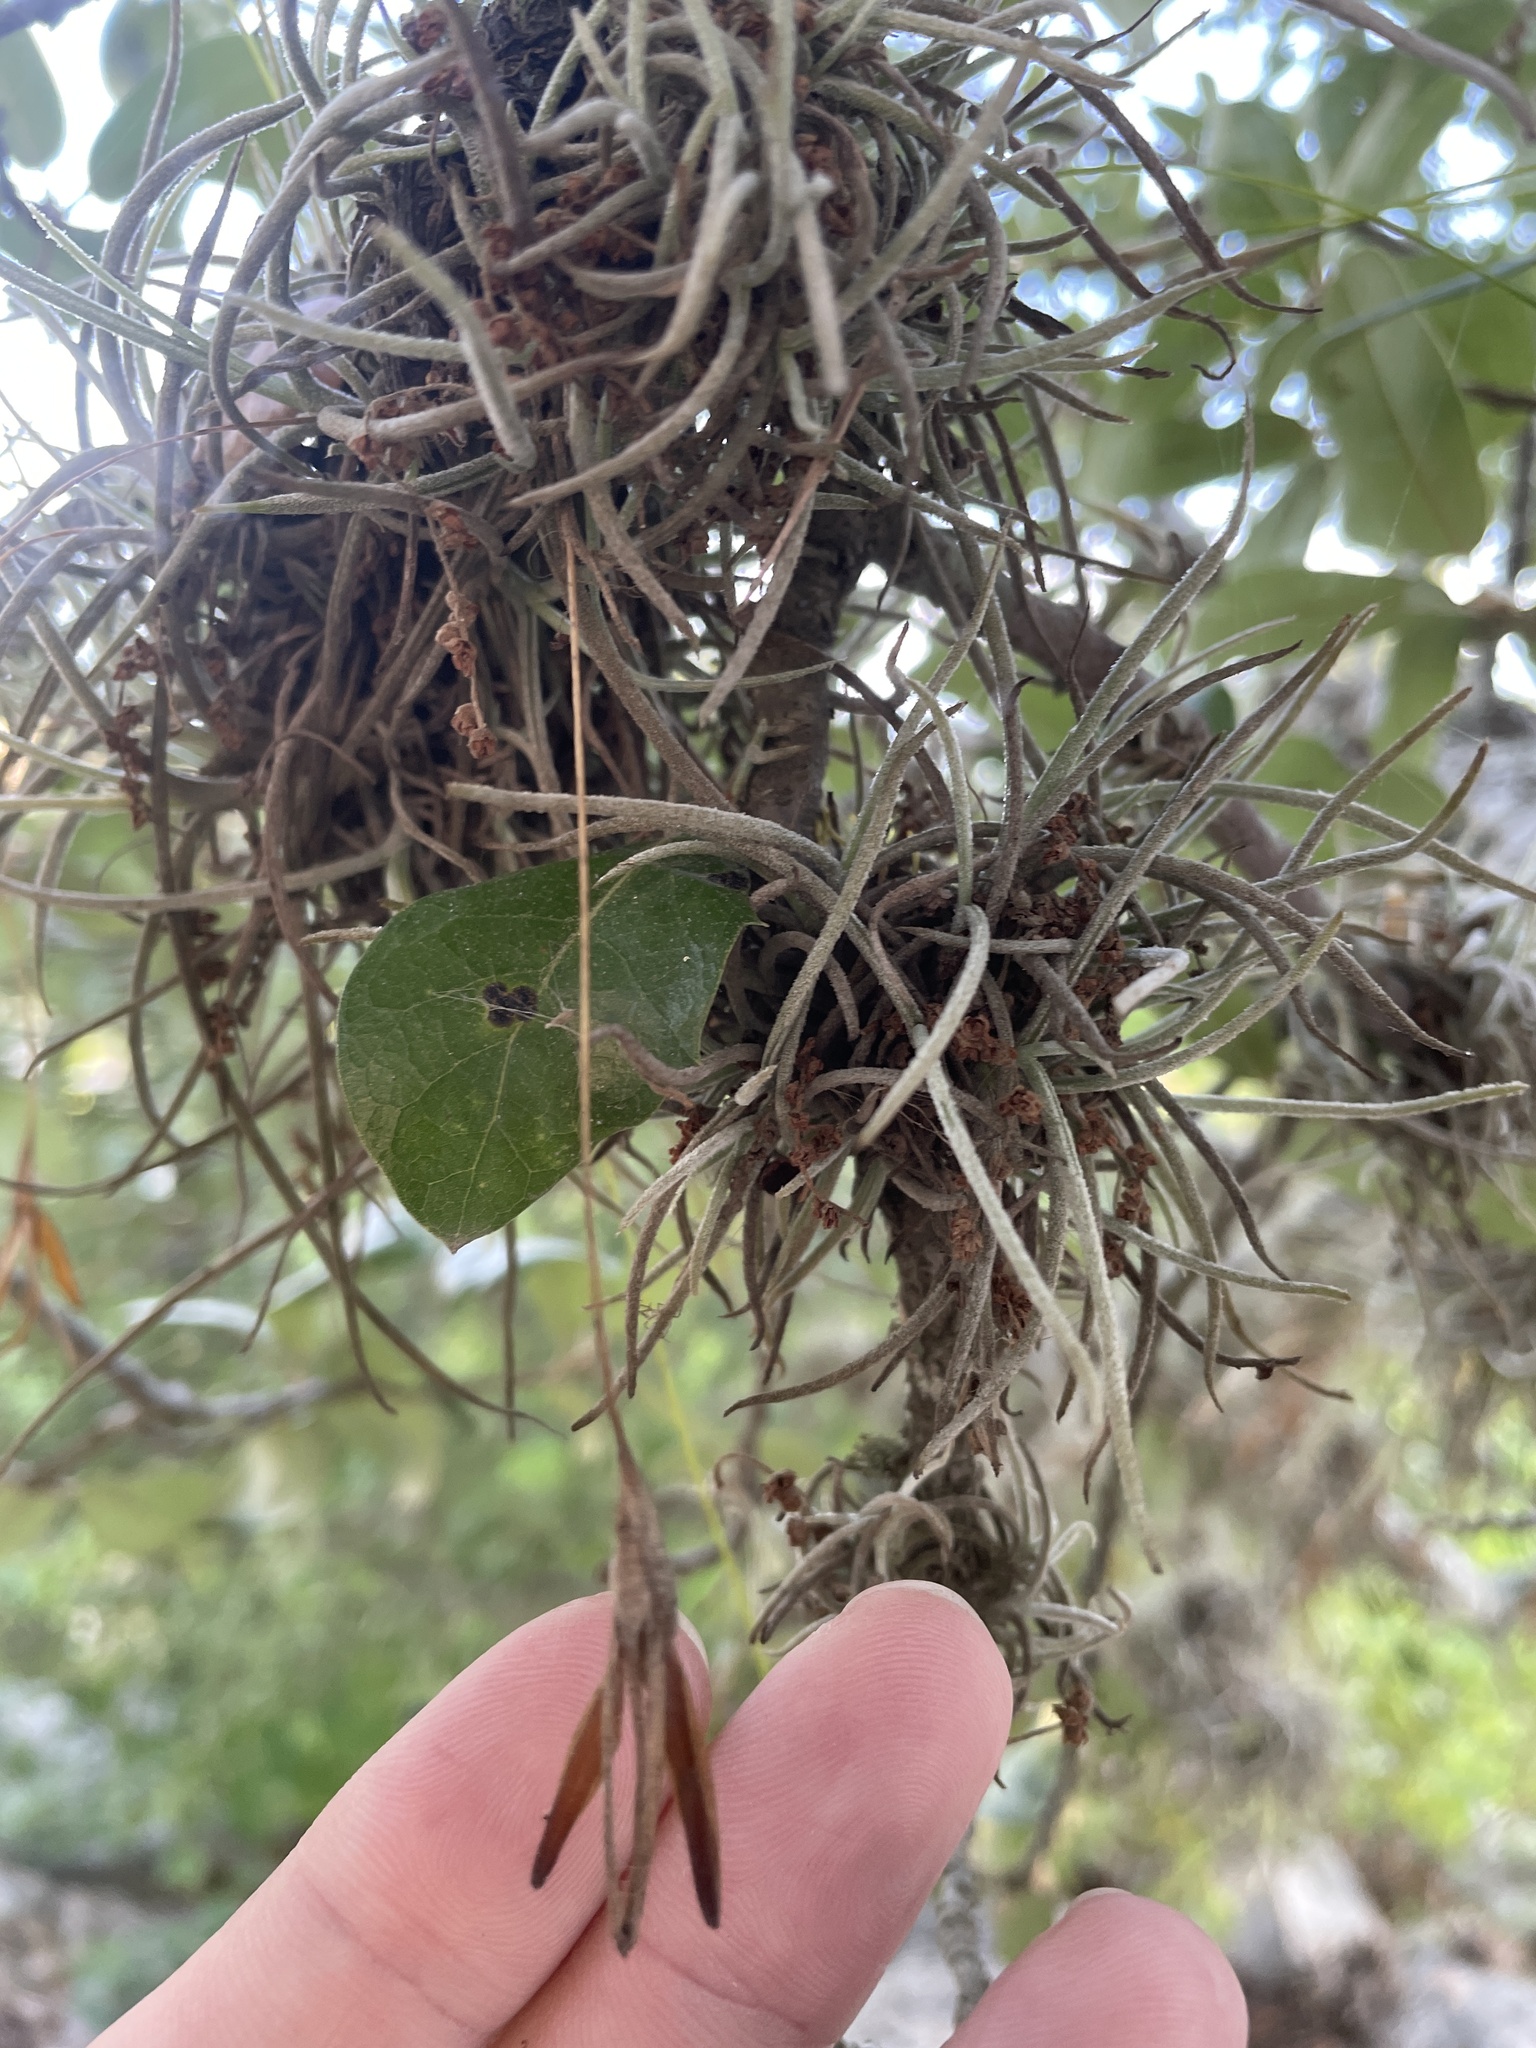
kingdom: Plantae
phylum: Tracheophyta
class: Liliopsida
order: Poales
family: Bromeliaceae
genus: Tillandsia
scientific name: Tillandsia recurvata
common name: Small ballmoss
